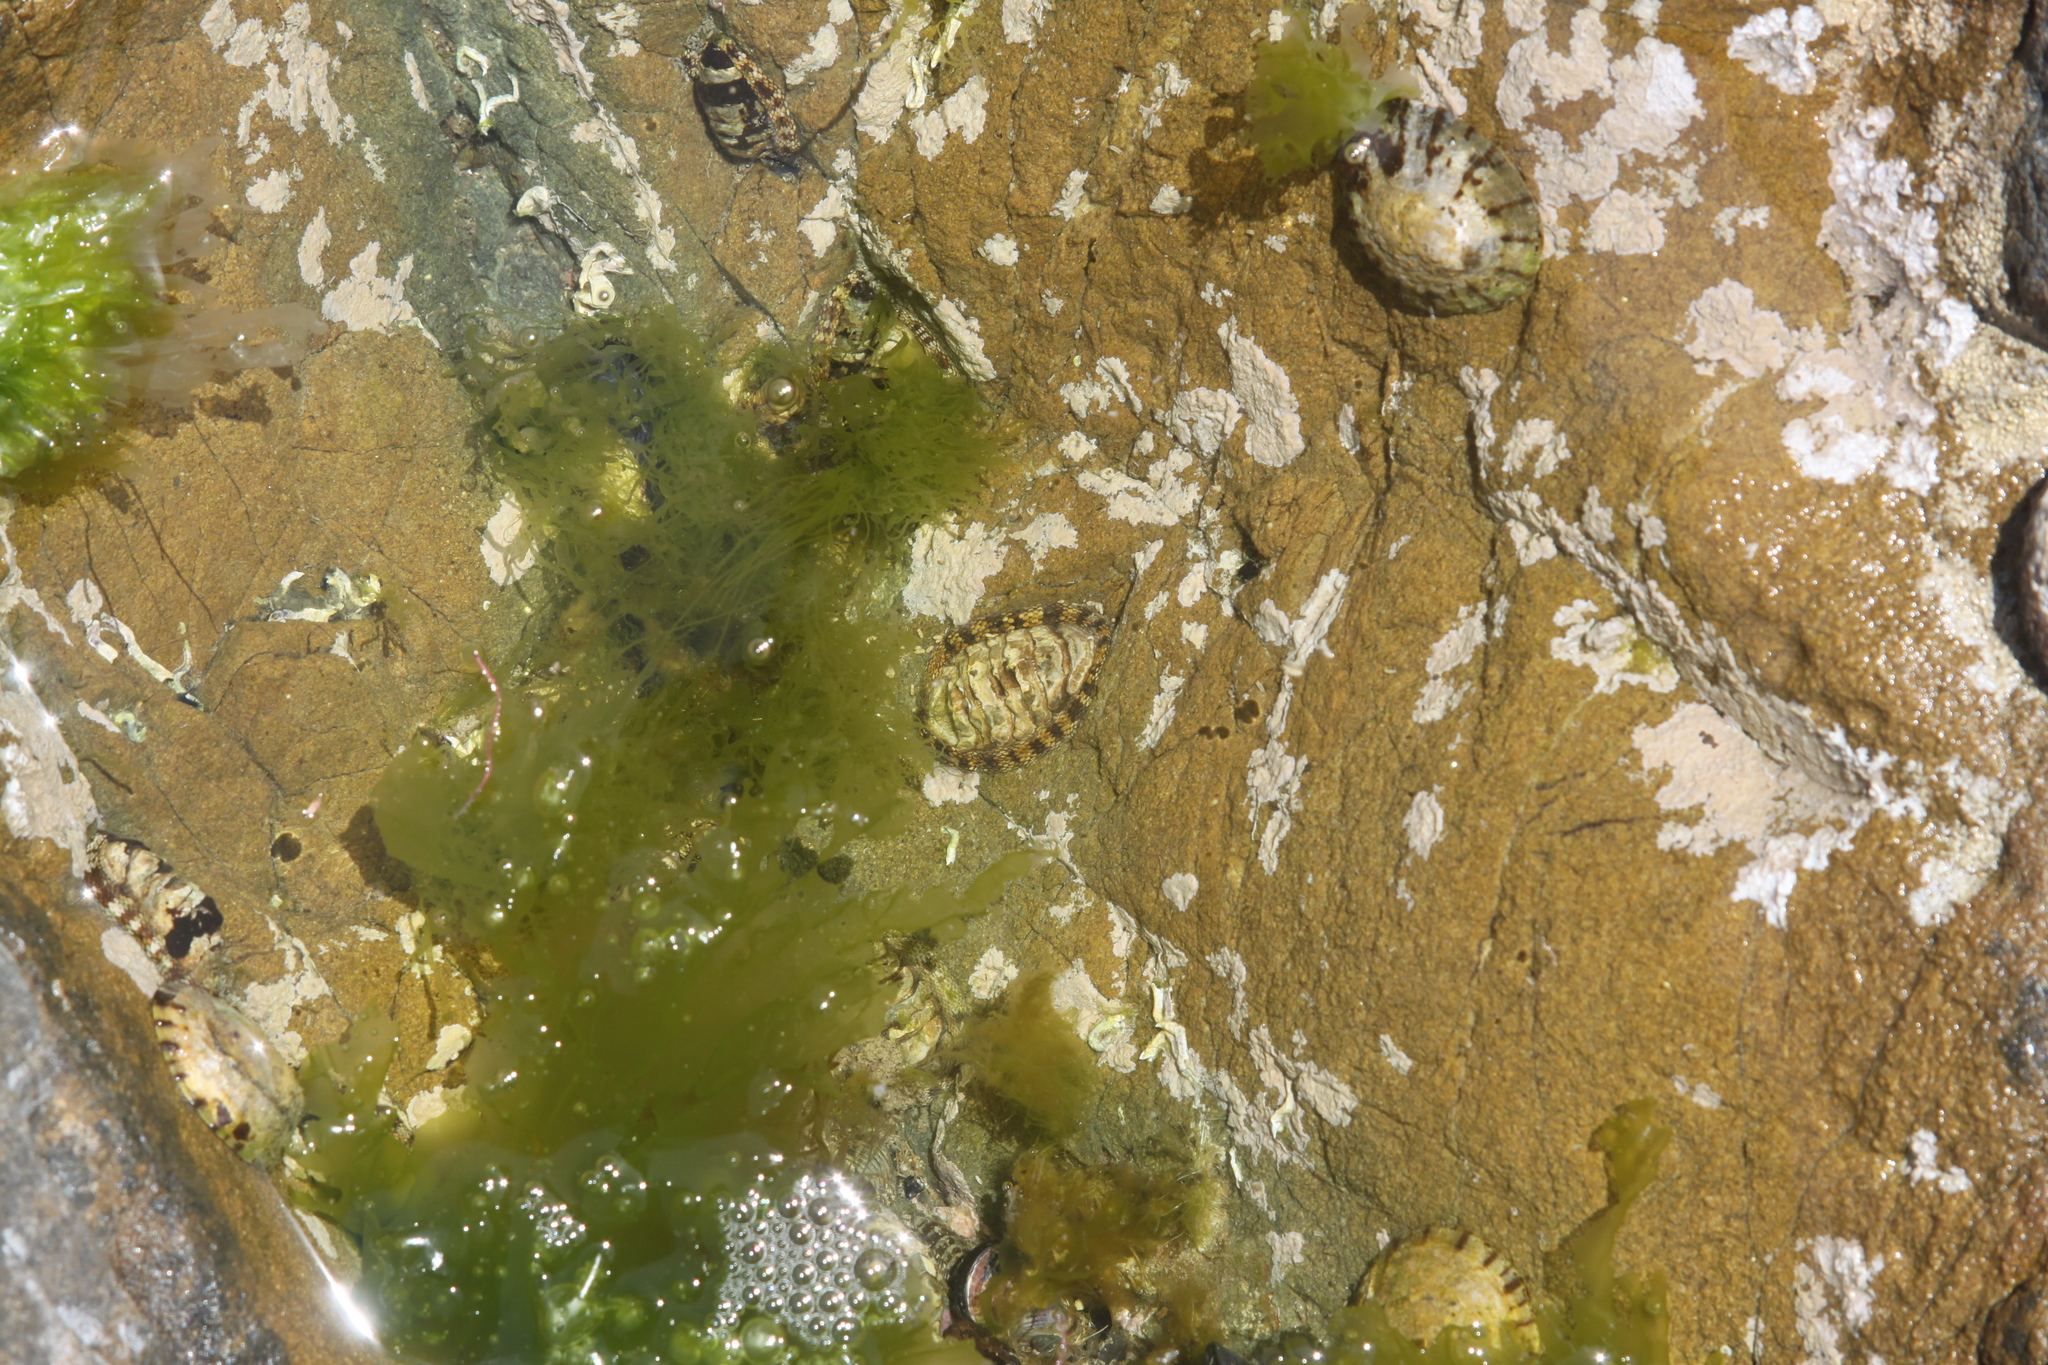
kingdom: Animalia
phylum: Mollusca
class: Polyplacophora
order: Chitonida
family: Chitonidae
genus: Sypharochiton
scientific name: Sypharochiton pelliserpentis
